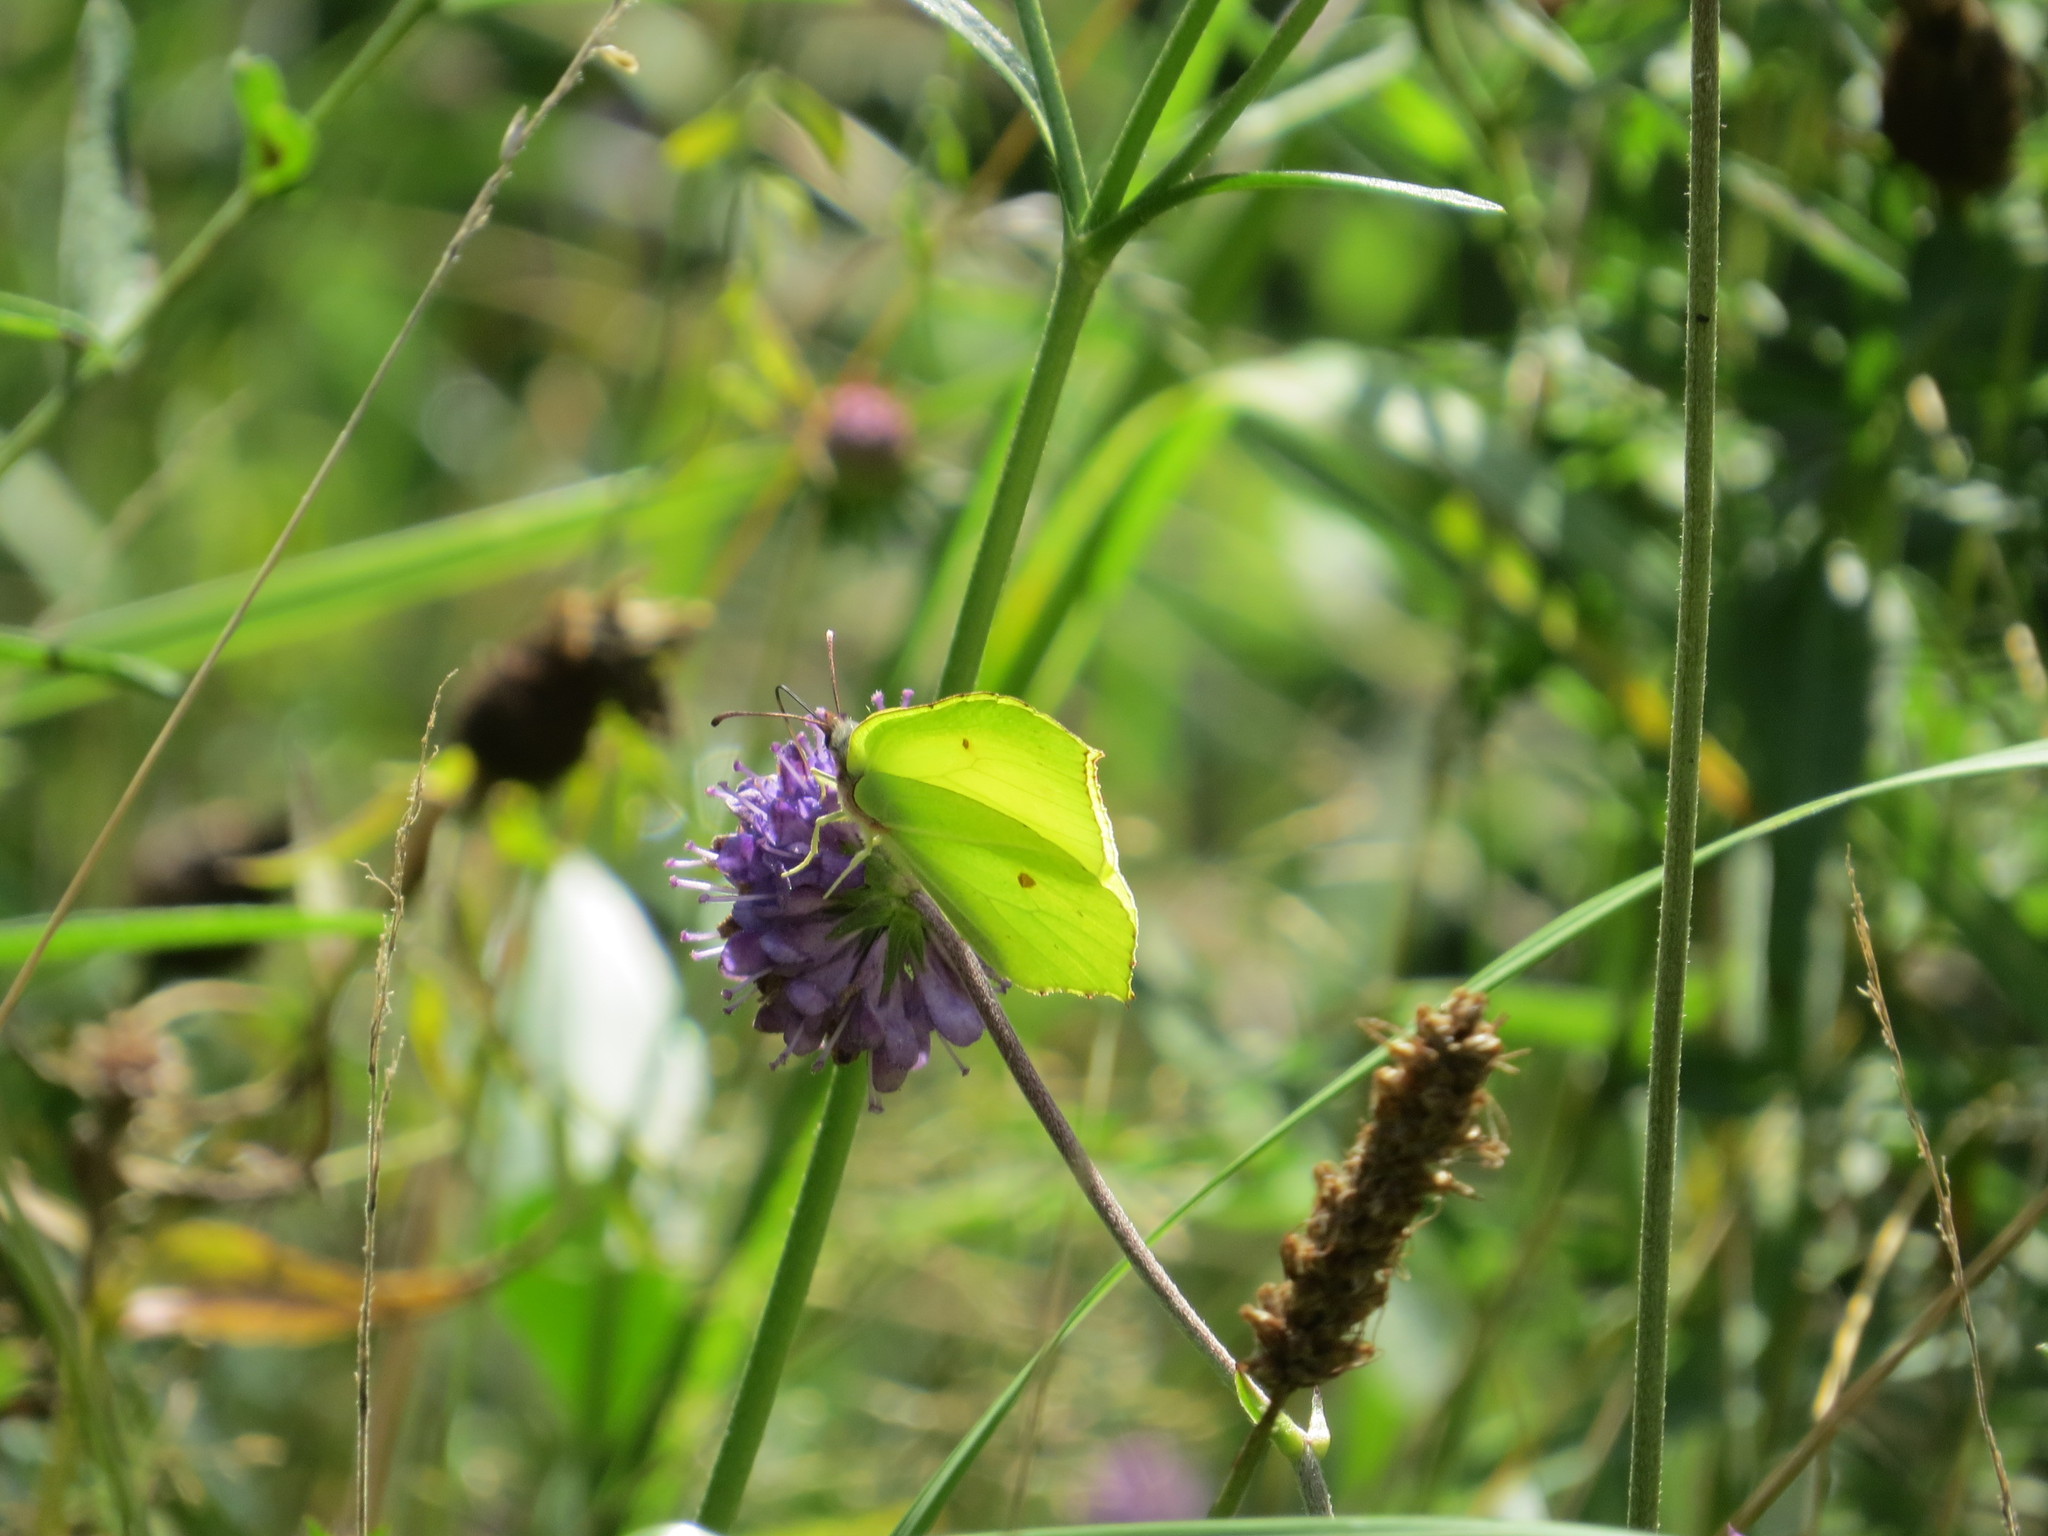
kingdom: Animalia
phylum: Arthropoda
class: Insecta
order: Lepidoptera
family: Pieridae
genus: Gonepteryx
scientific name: Gonepteryx rhamni
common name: Brimstone
